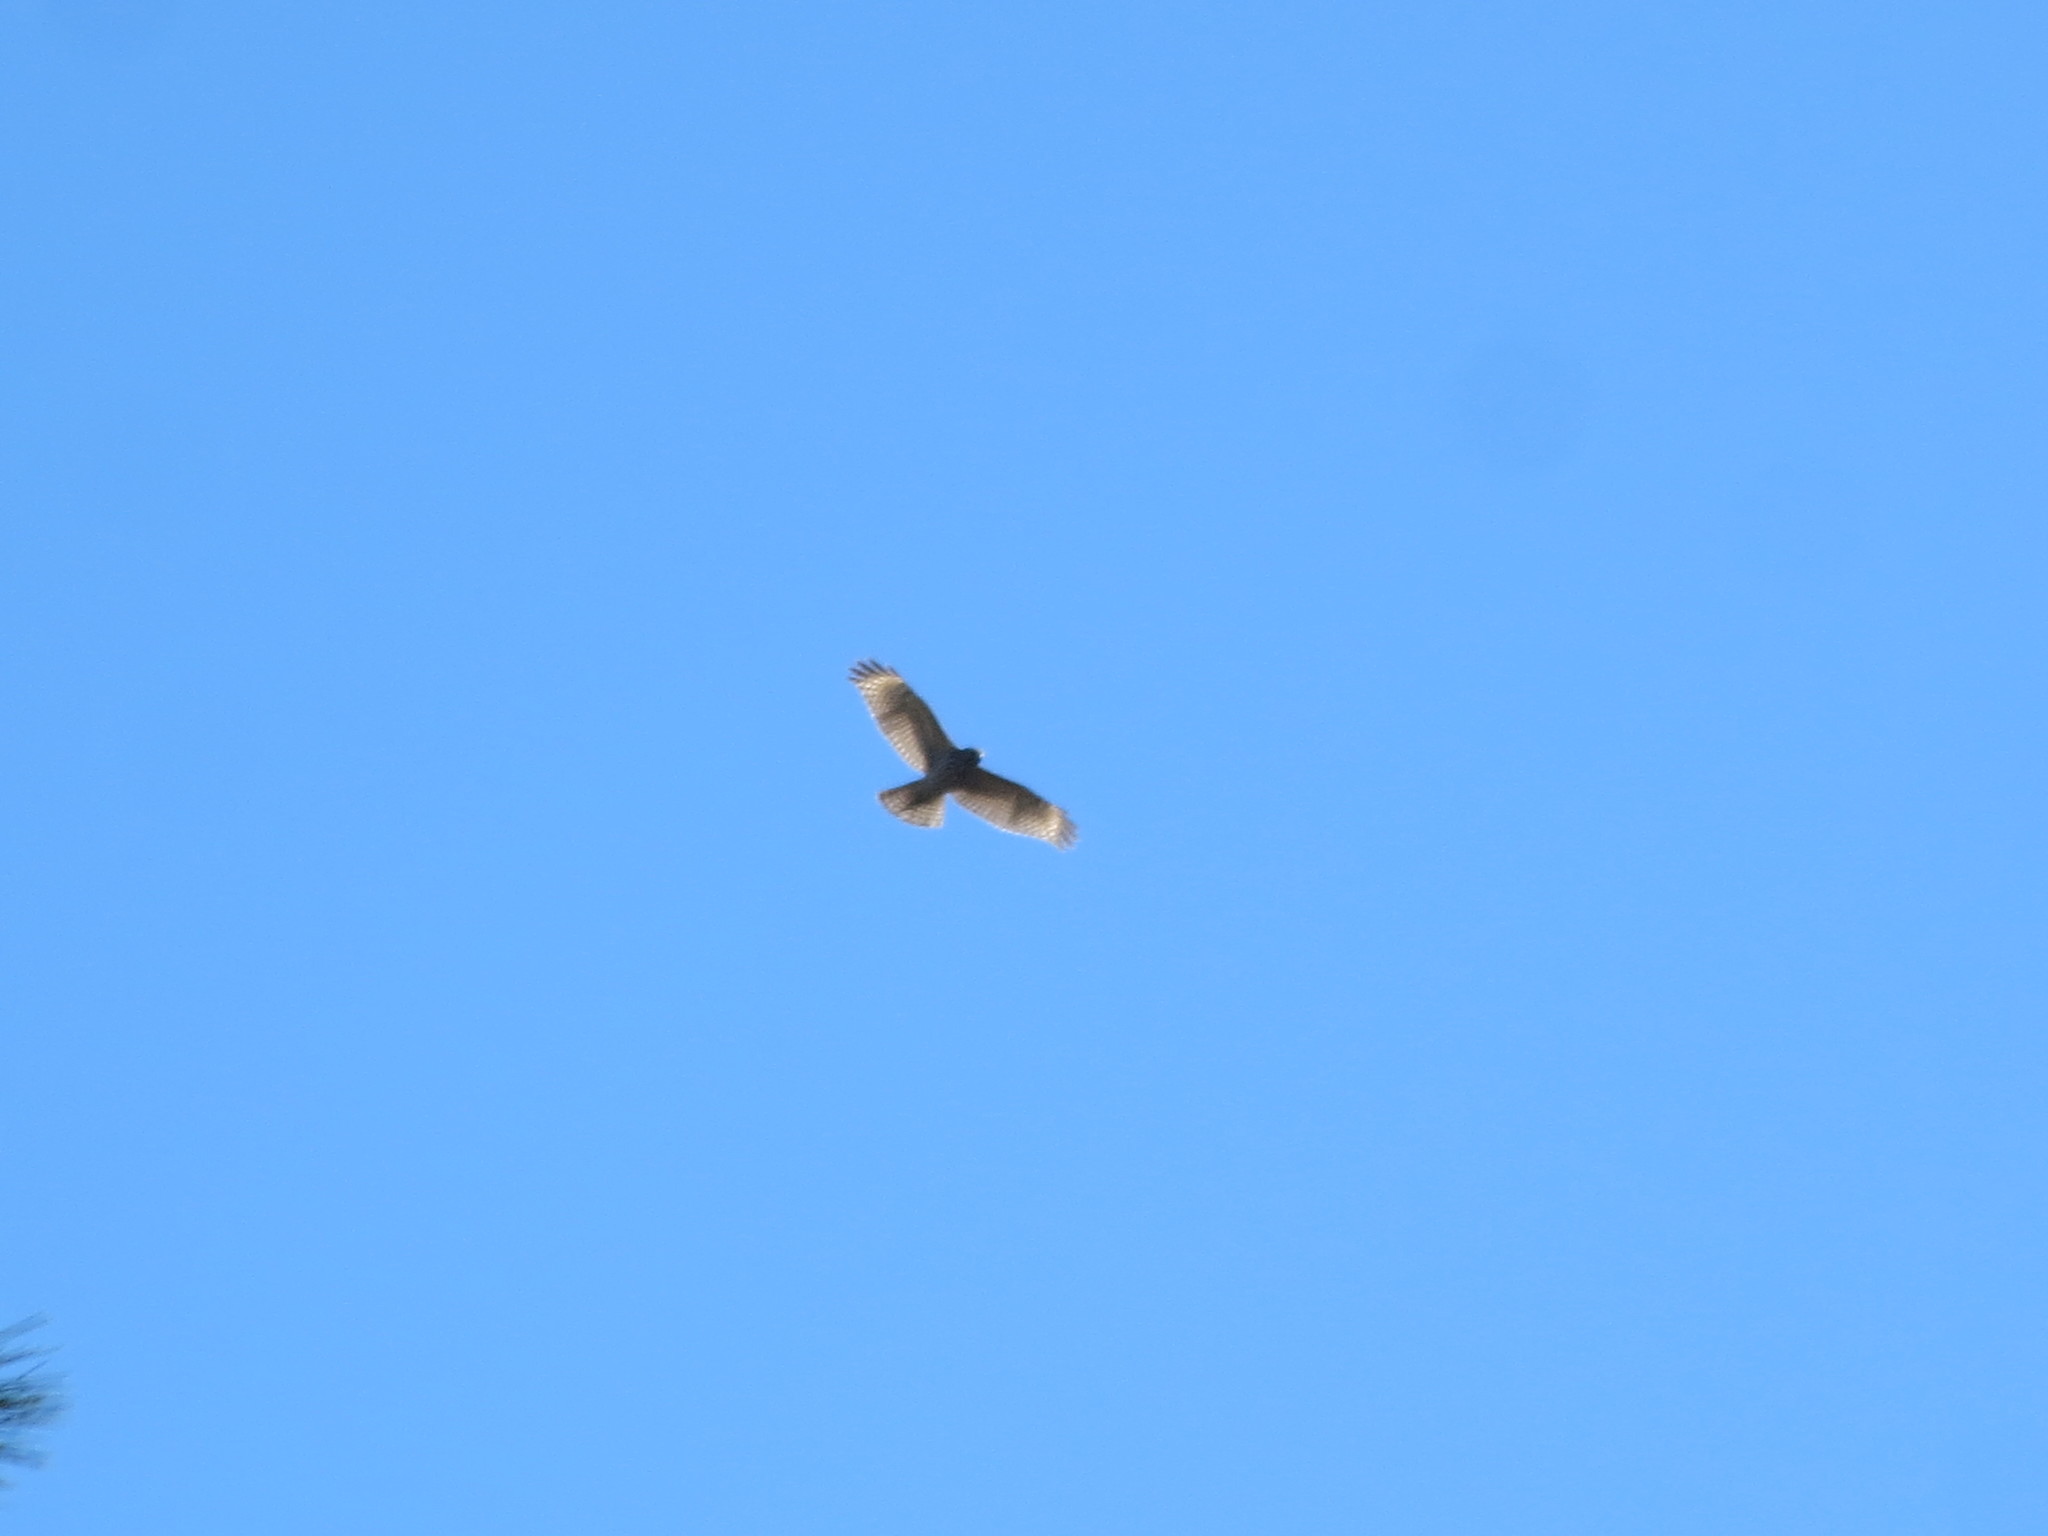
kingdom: Animalia
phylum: Chordata
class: Aves
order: Accipitriformes
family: Accipitridae
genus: Buteo
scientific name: Buteo lineatus
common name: Red-shouldered hawk
